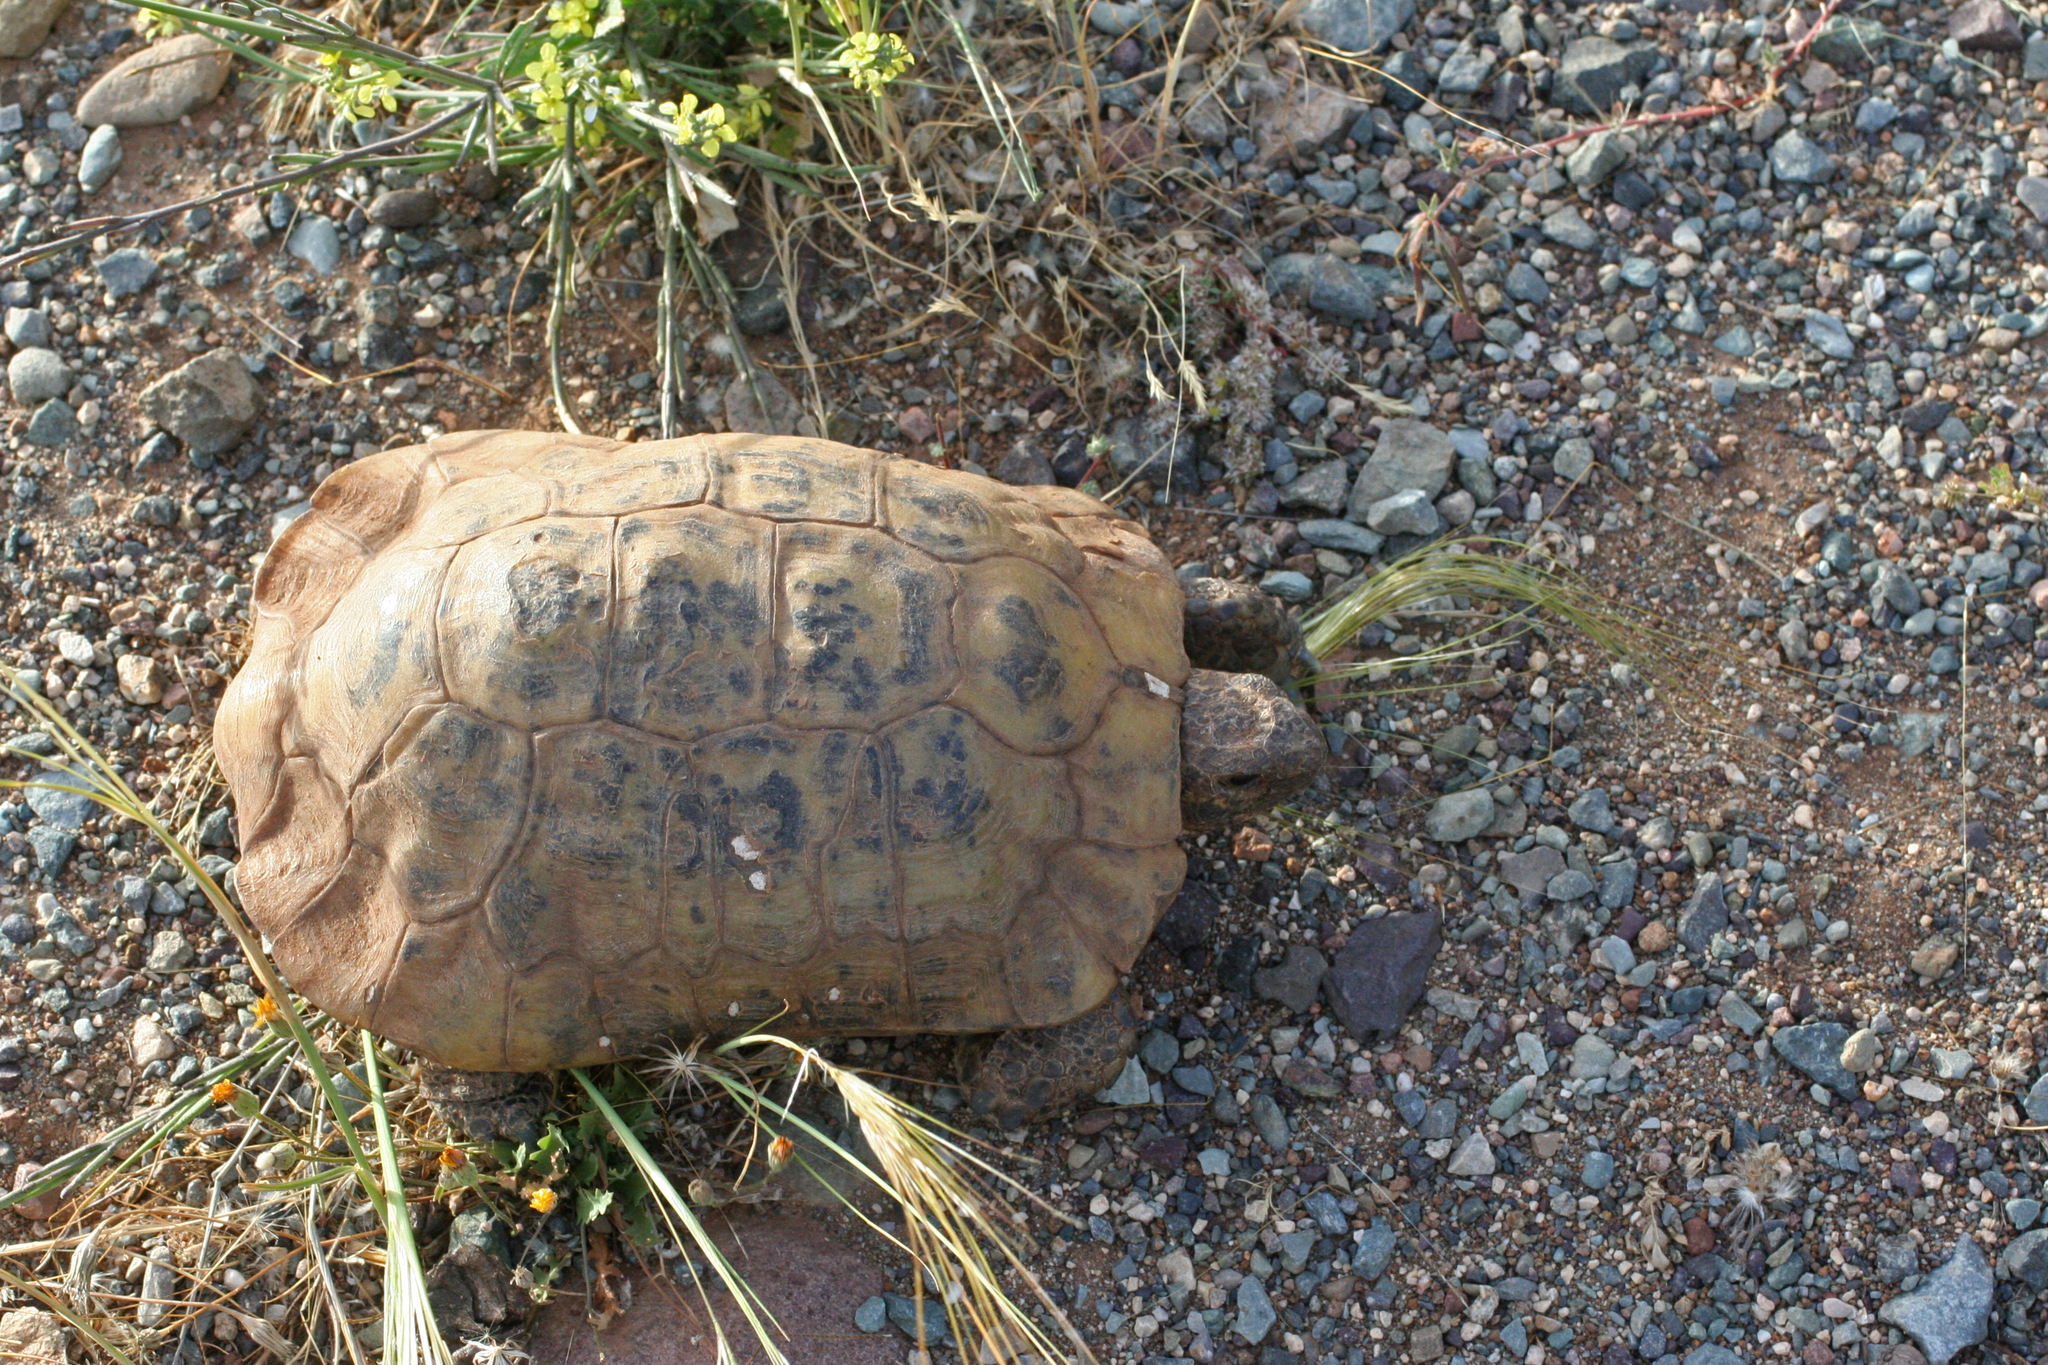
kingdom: Animalia
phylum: Chordata
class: Testudines
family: Testudinidae
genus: Testudo
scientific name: Testudo graeca
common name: Common tortoise
